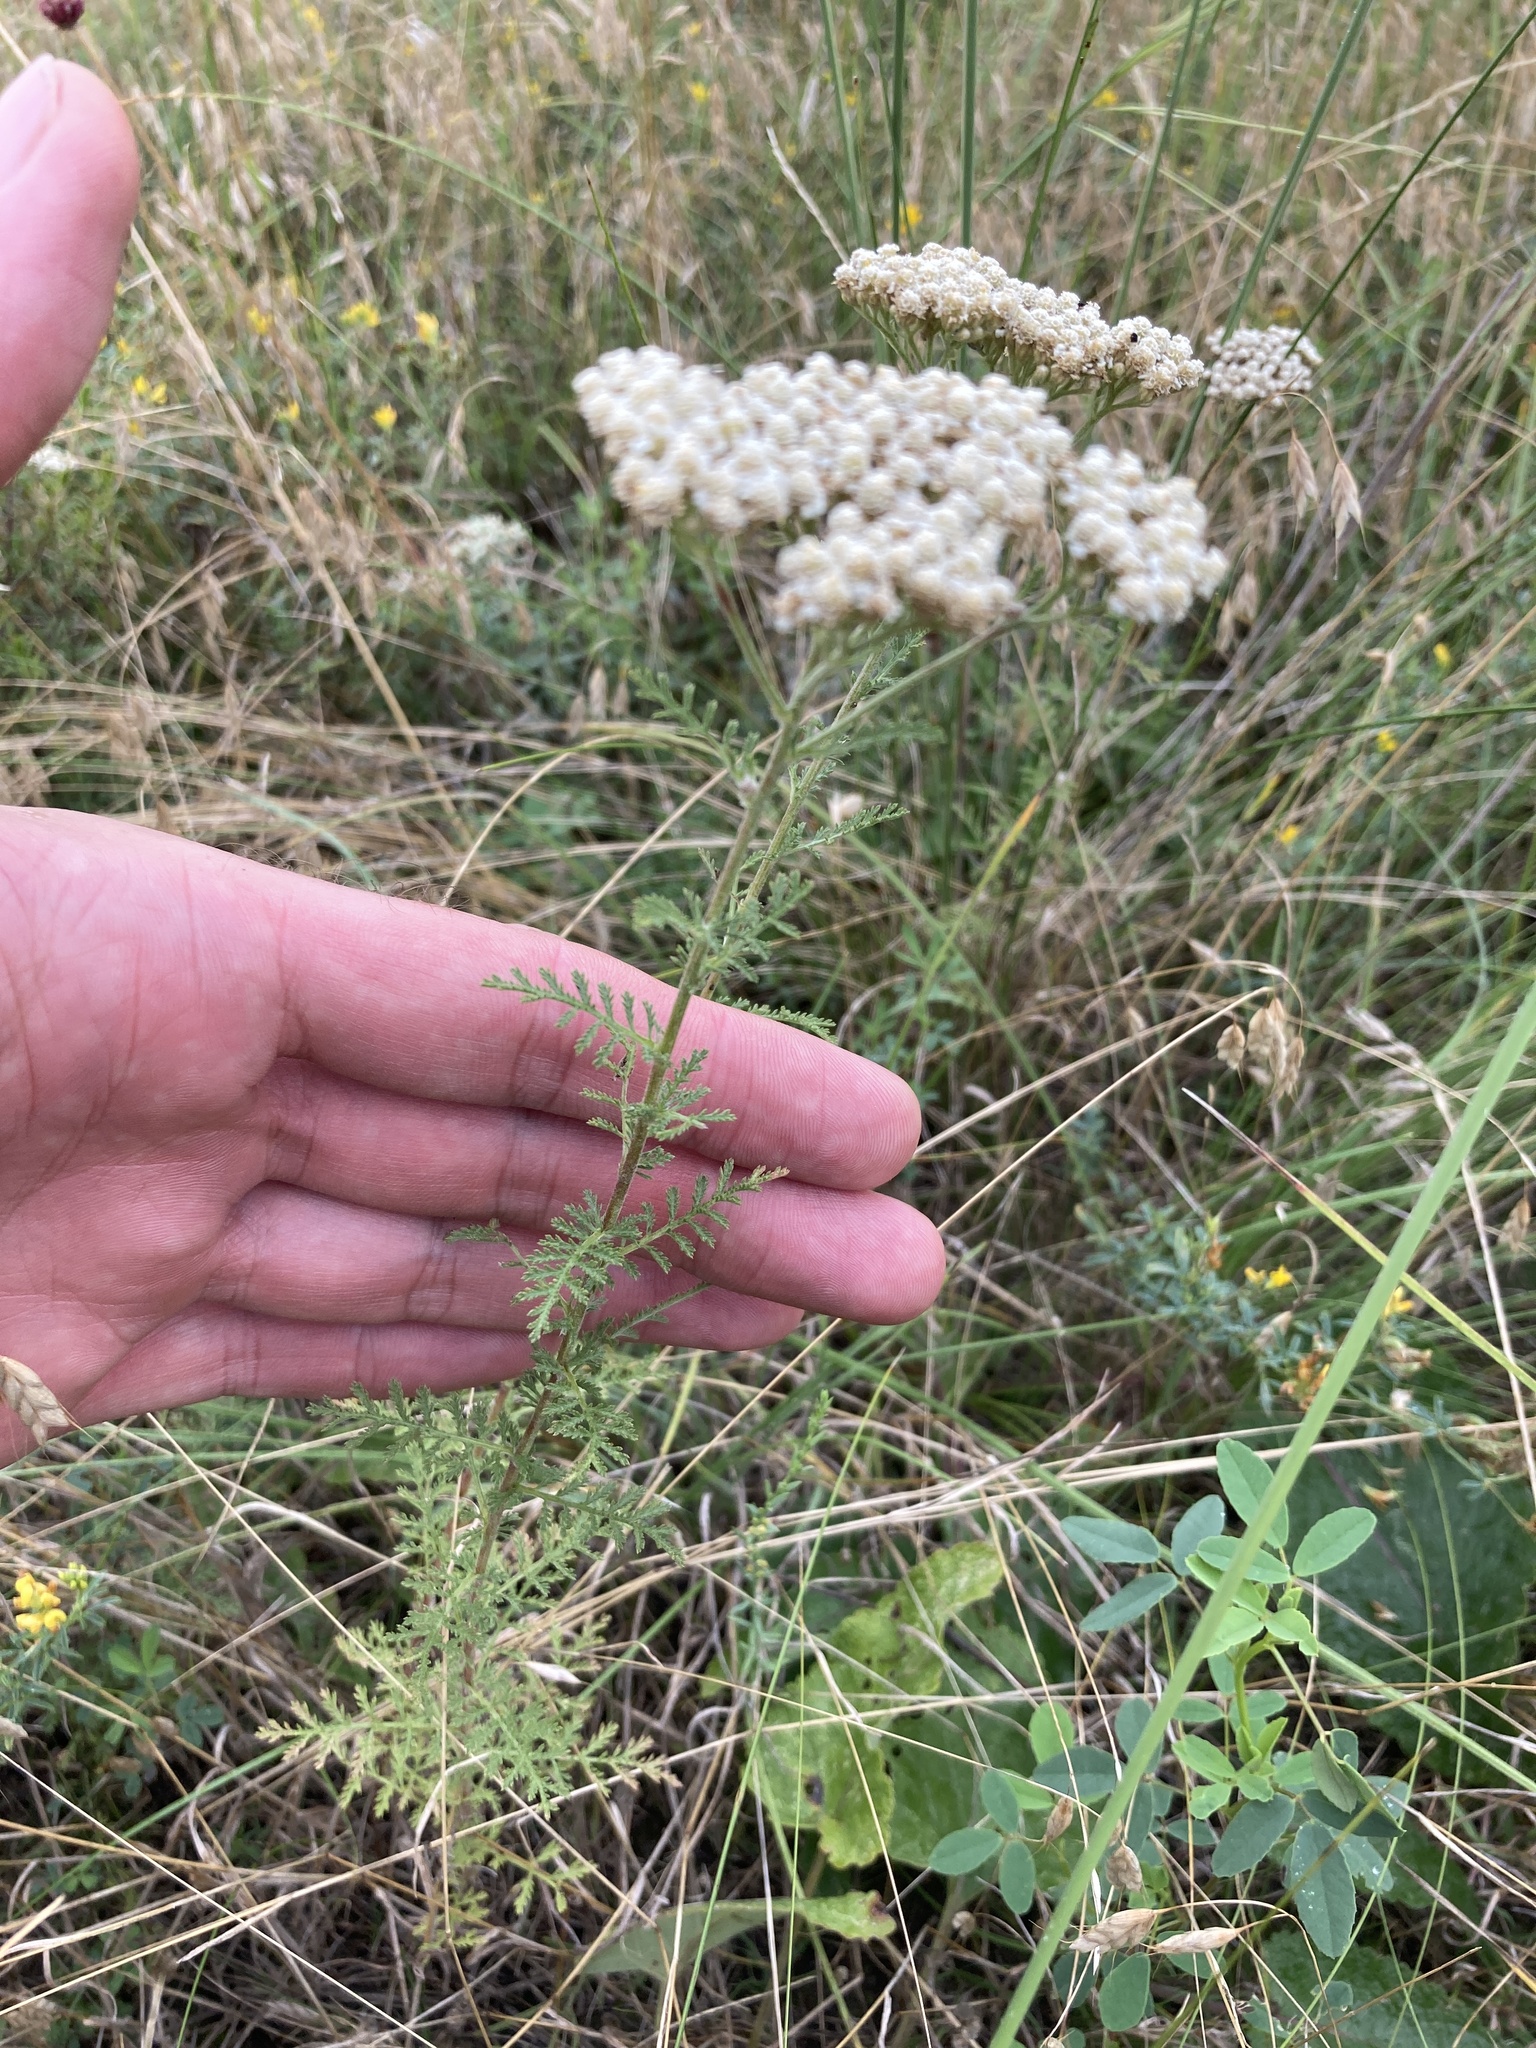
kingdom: Plantae
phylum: Tracheophyta
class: Magnoliopsida
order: Asterales
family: Asteraceae
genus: Achillea
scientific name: Achillea nobilis
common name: Noble yarrow
